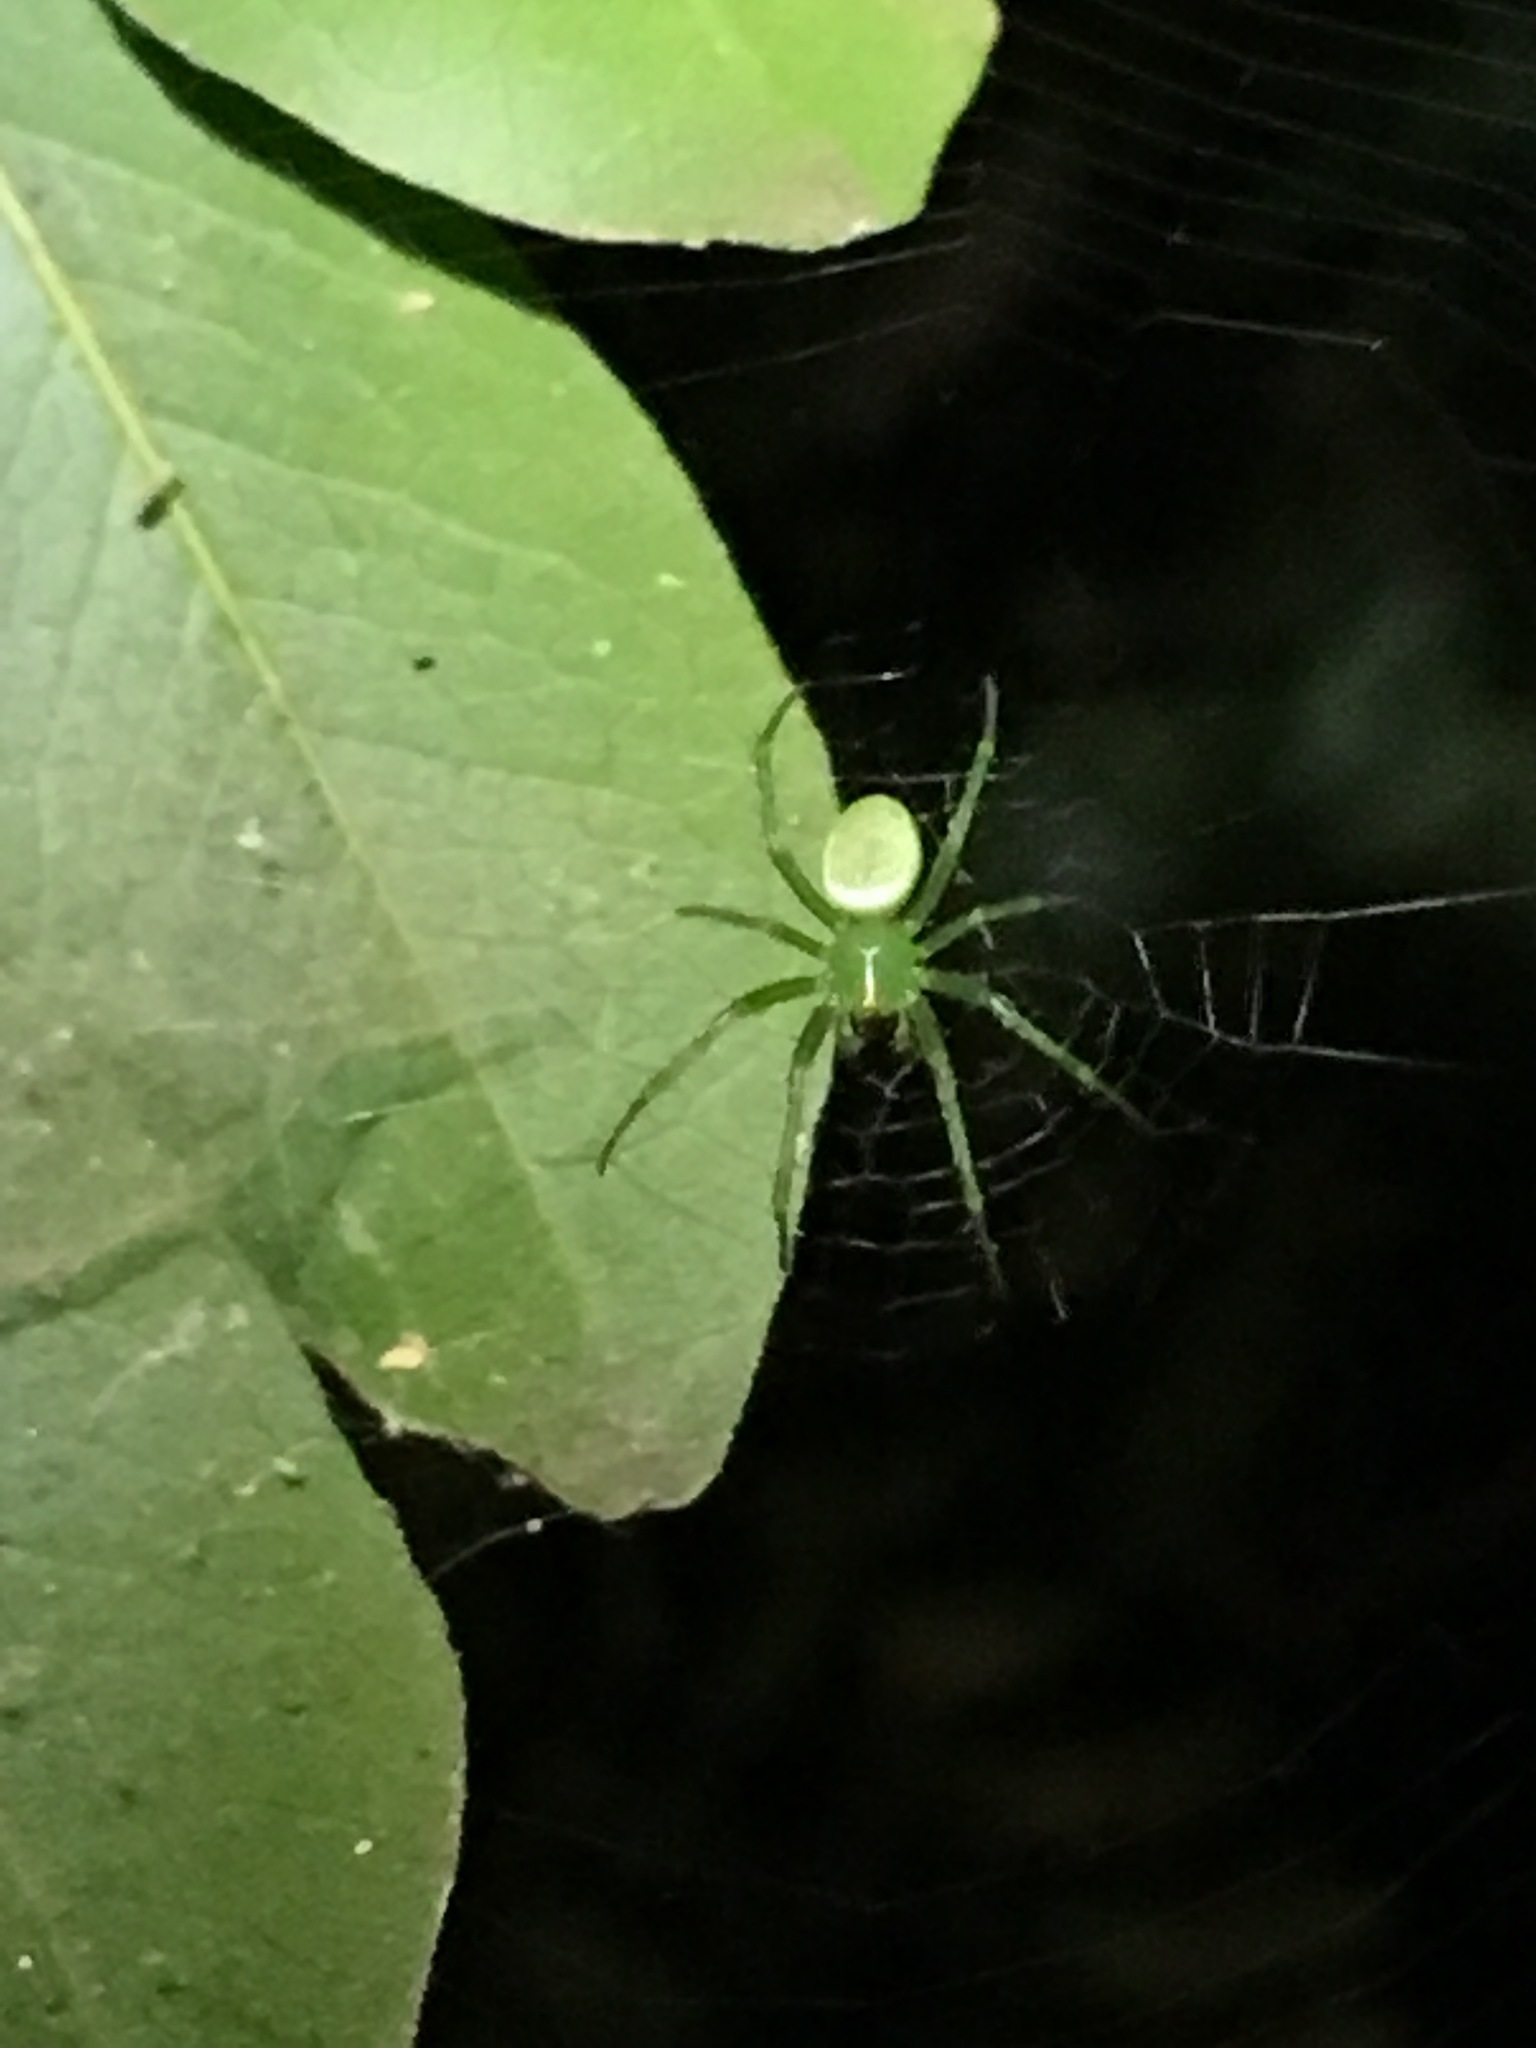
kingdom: Animalia
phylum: Arthropoda
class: Arachnida
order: Araneae
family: Araneidae
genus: Prasonica
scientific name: Prasonica albolimbata
